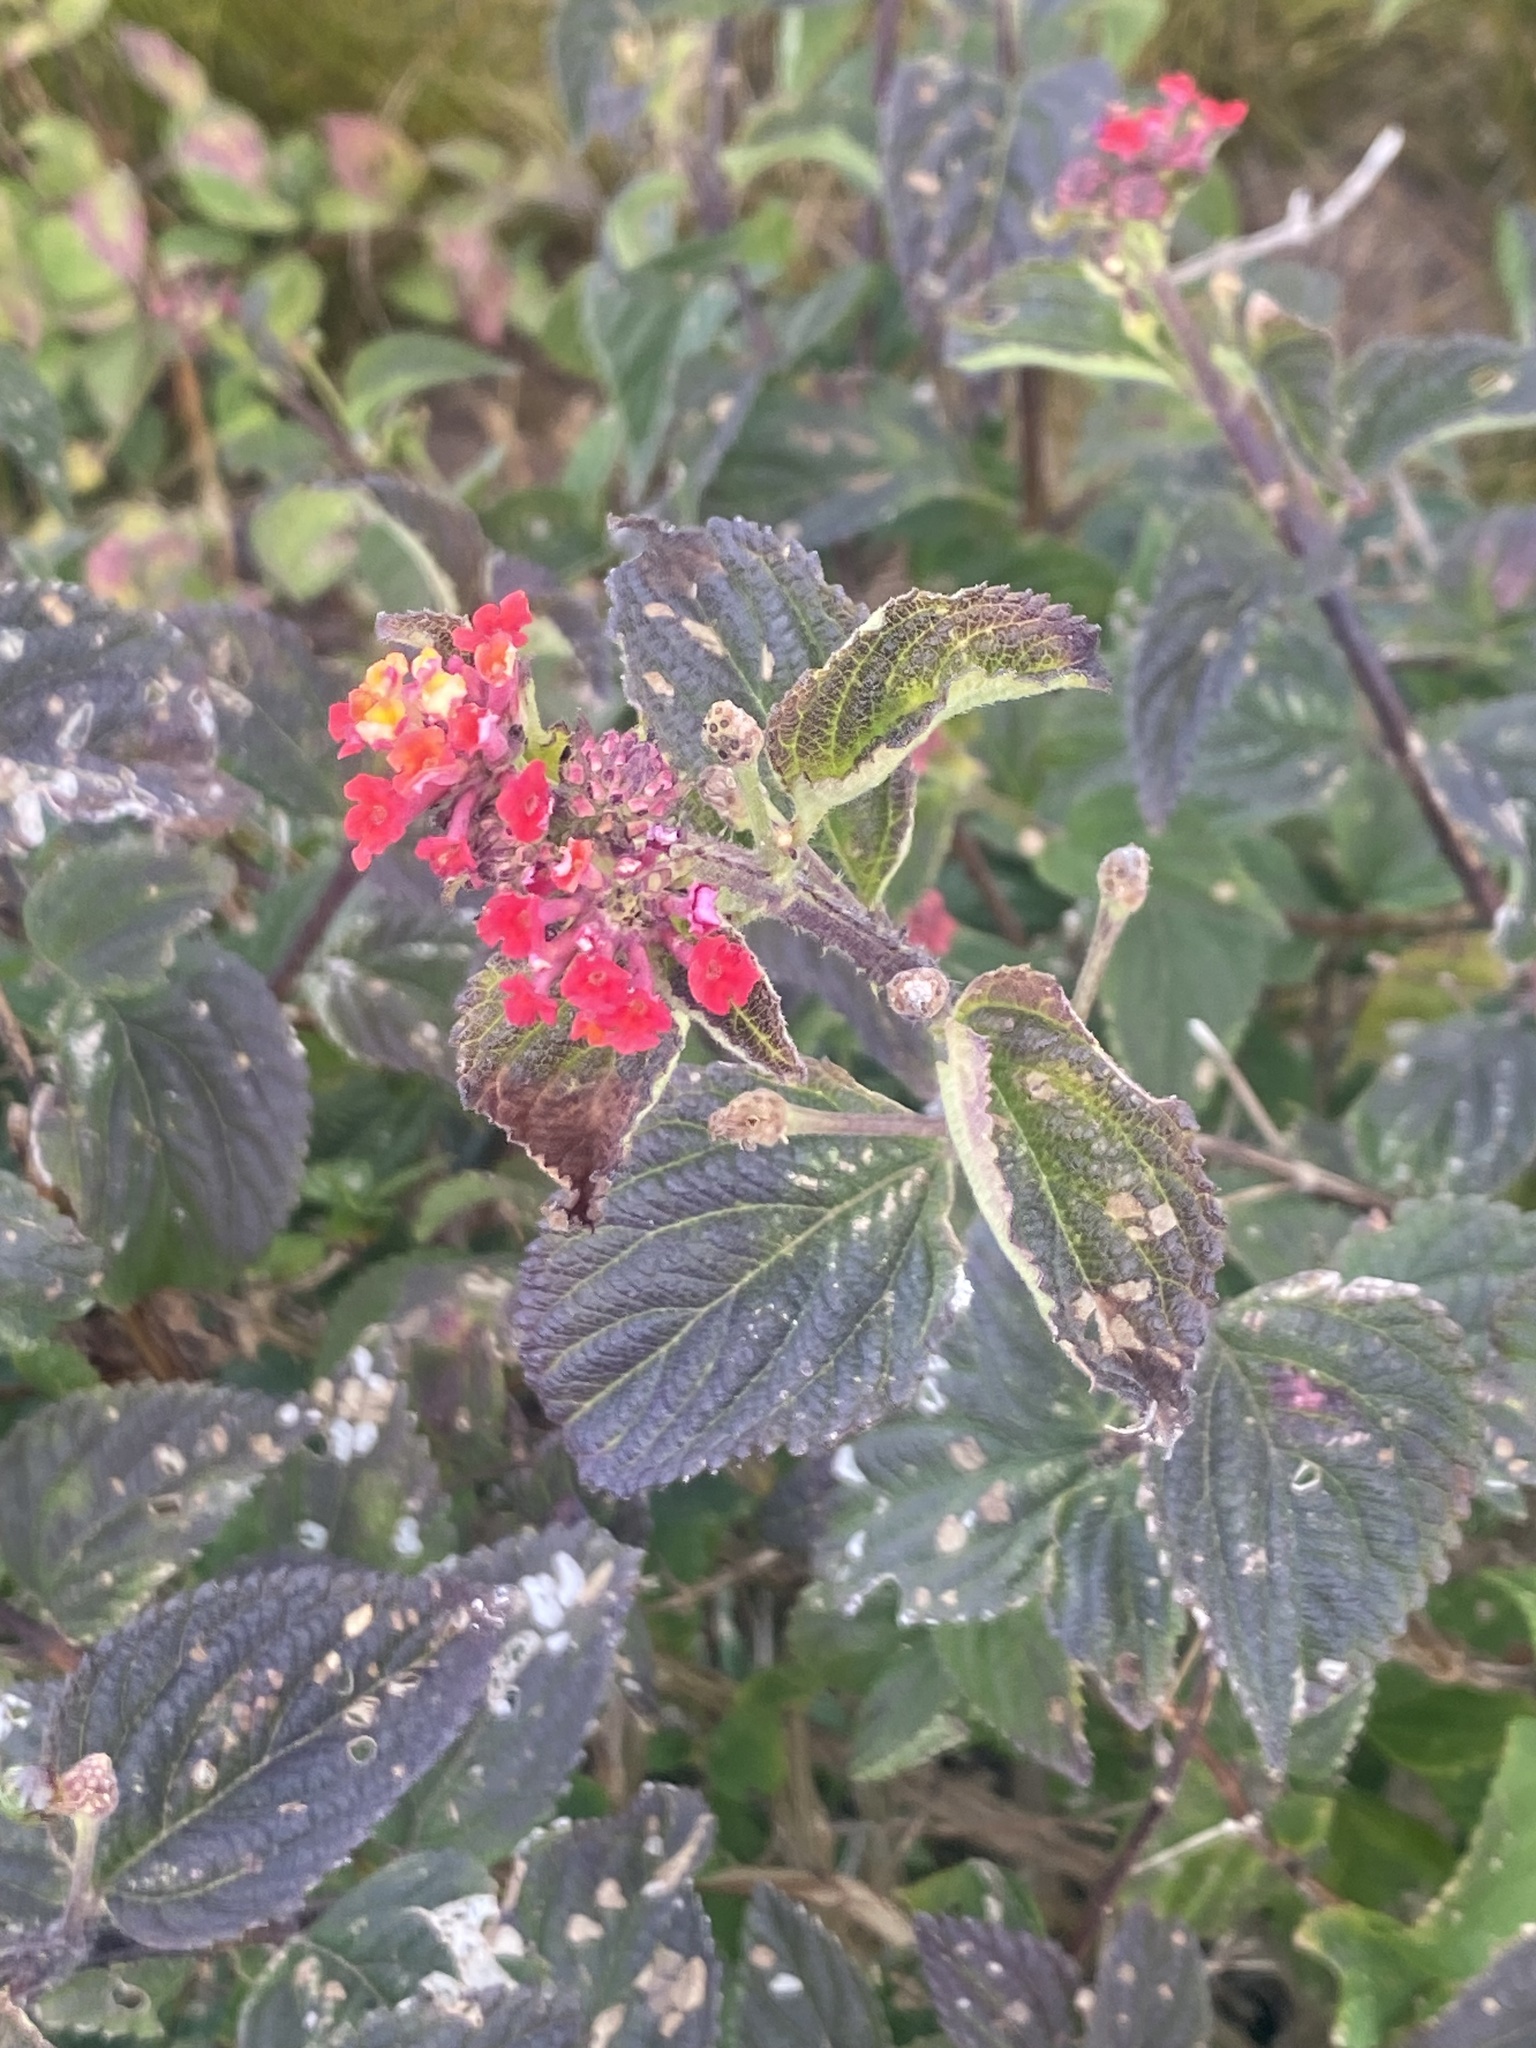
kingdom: Plantae
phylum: Tracheophyta
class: Magnoliopsida
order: Lamiales
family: Verbenaceae
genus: Lantana
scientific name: Lantana camara
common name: Lantana
